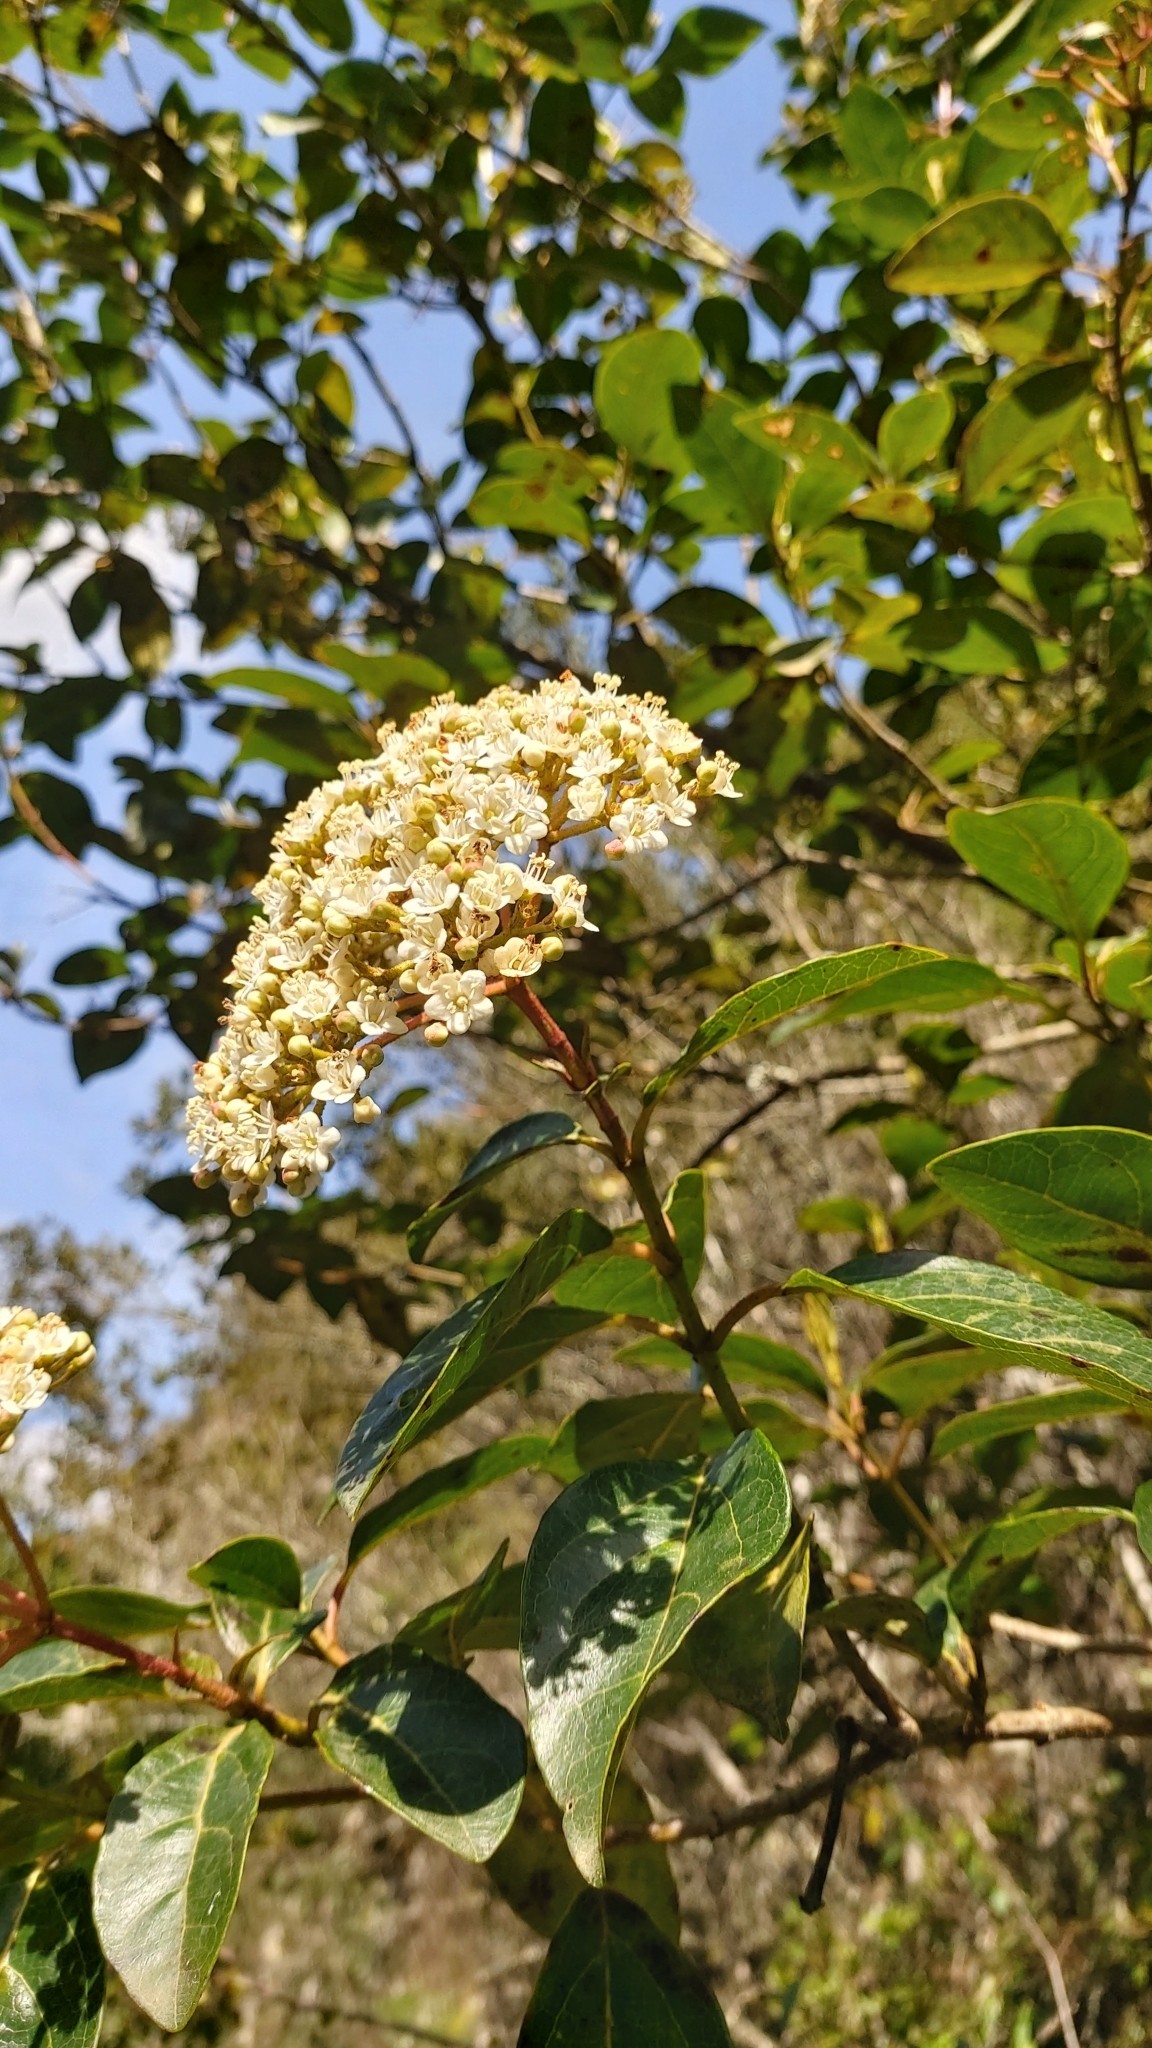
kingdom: Plantae
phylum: Tracheophyta
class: Magnoliopsida
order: Dipsacales
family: Viburnaceae
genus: Viburnum
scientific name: Viburnum tinus
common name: Laurustinus
